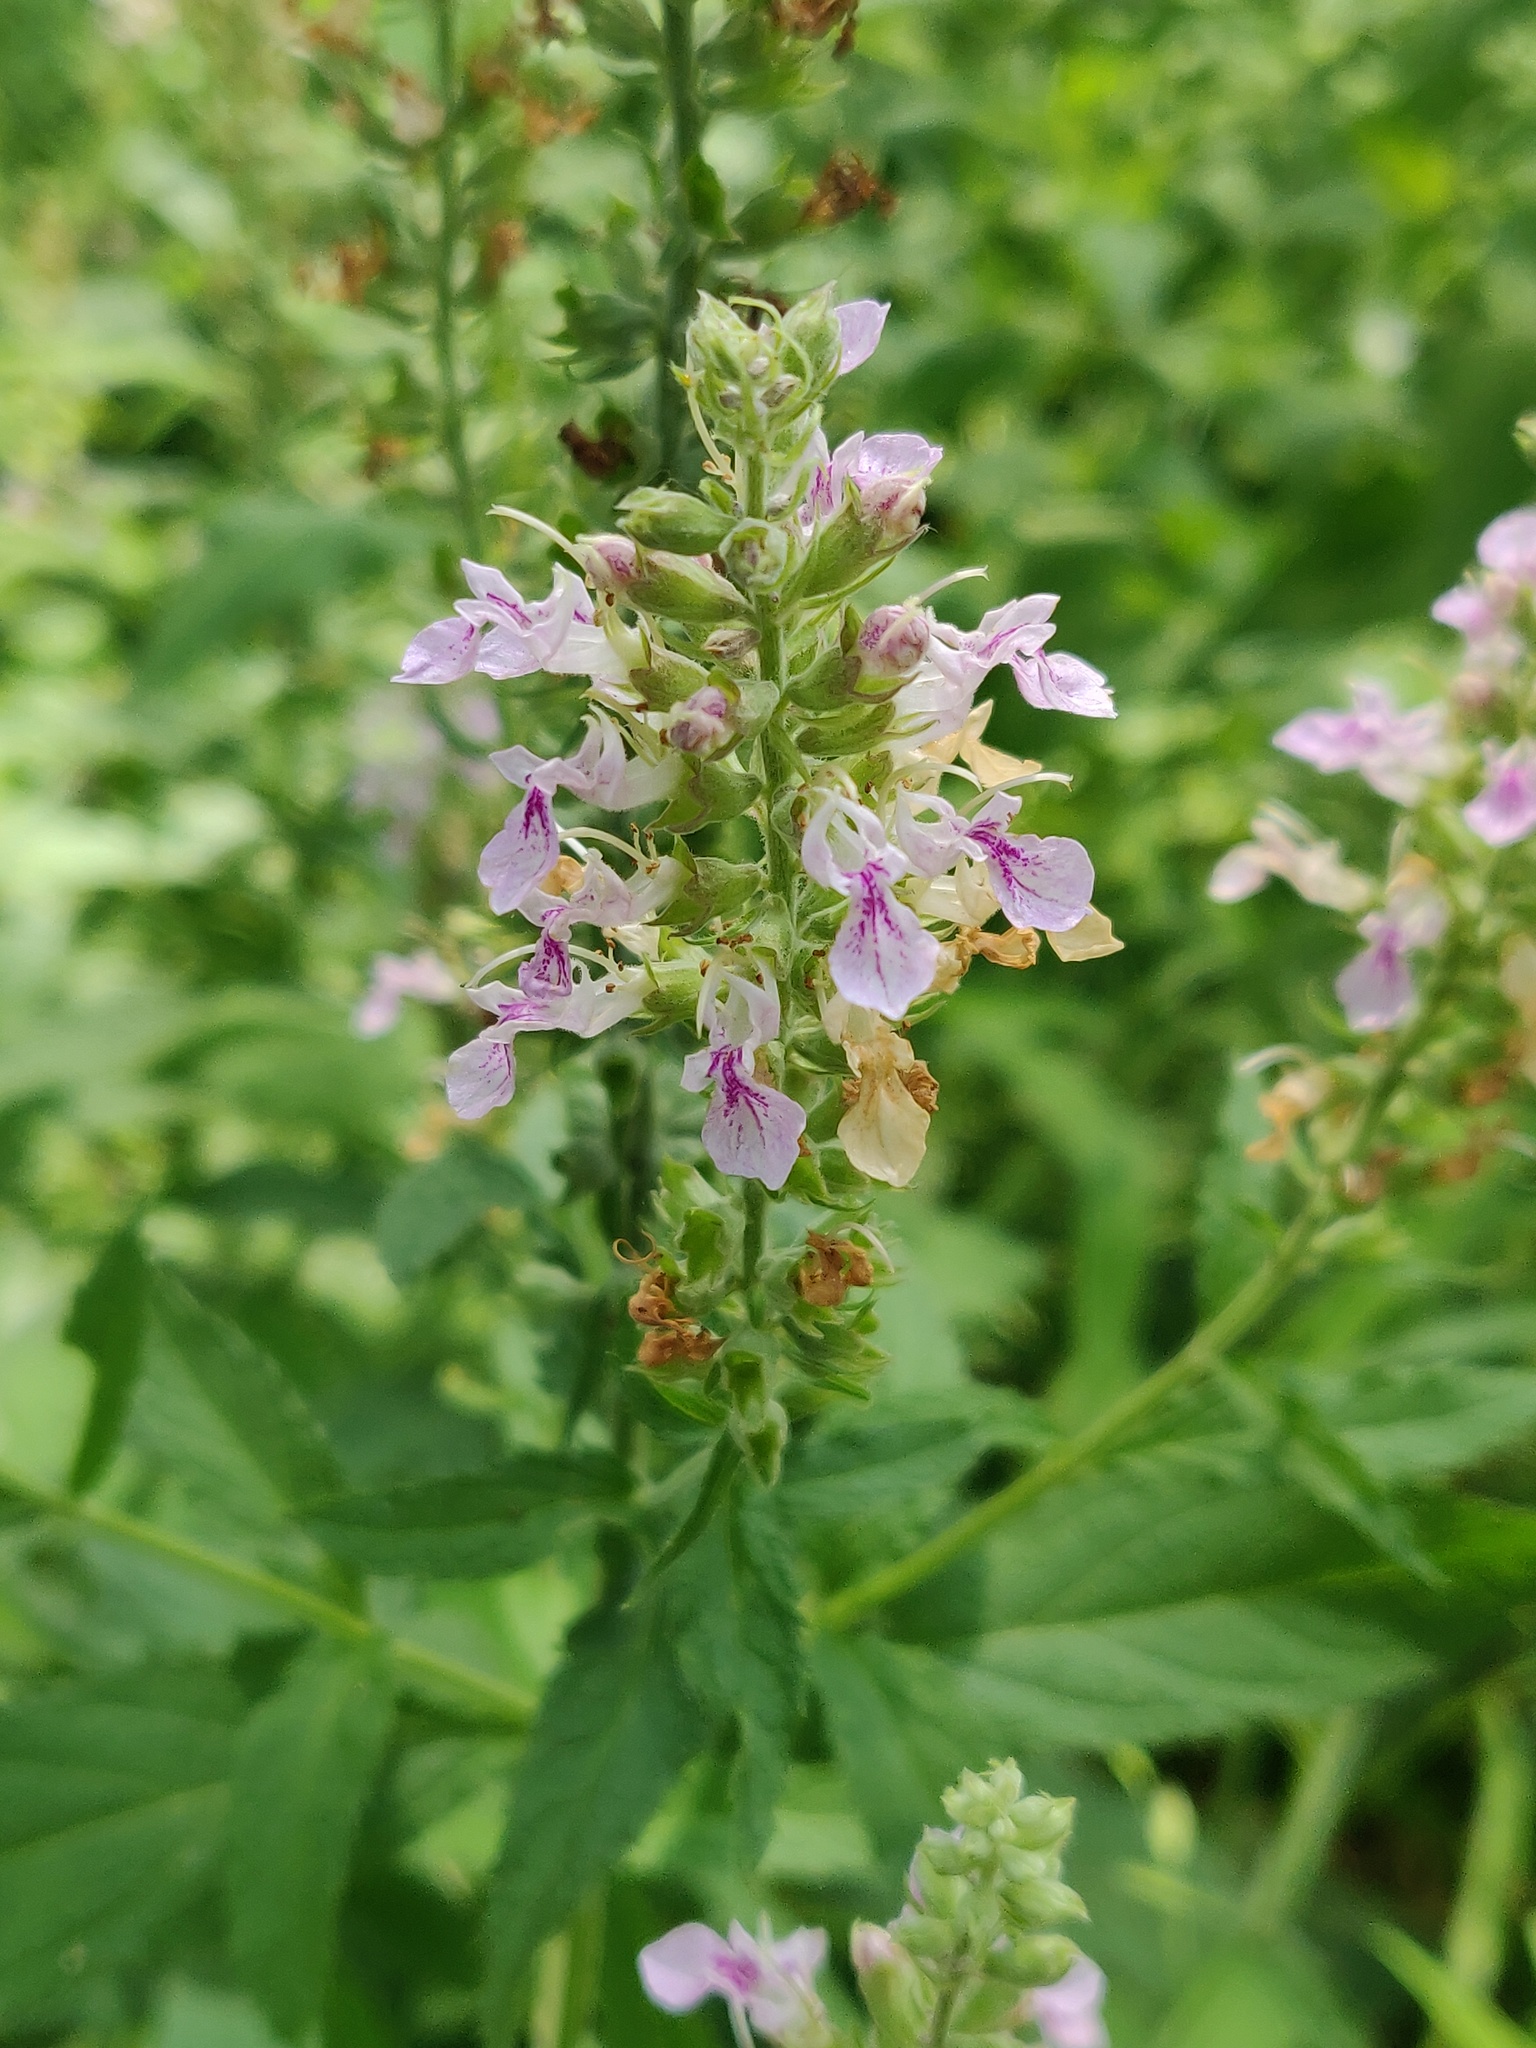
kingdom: Plantae
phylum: Tracheophyta
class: Magnoliopsida
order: Lamiales
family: Lamiaceae
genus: Teucrium
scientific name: Teucrium canadense
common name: American germander
